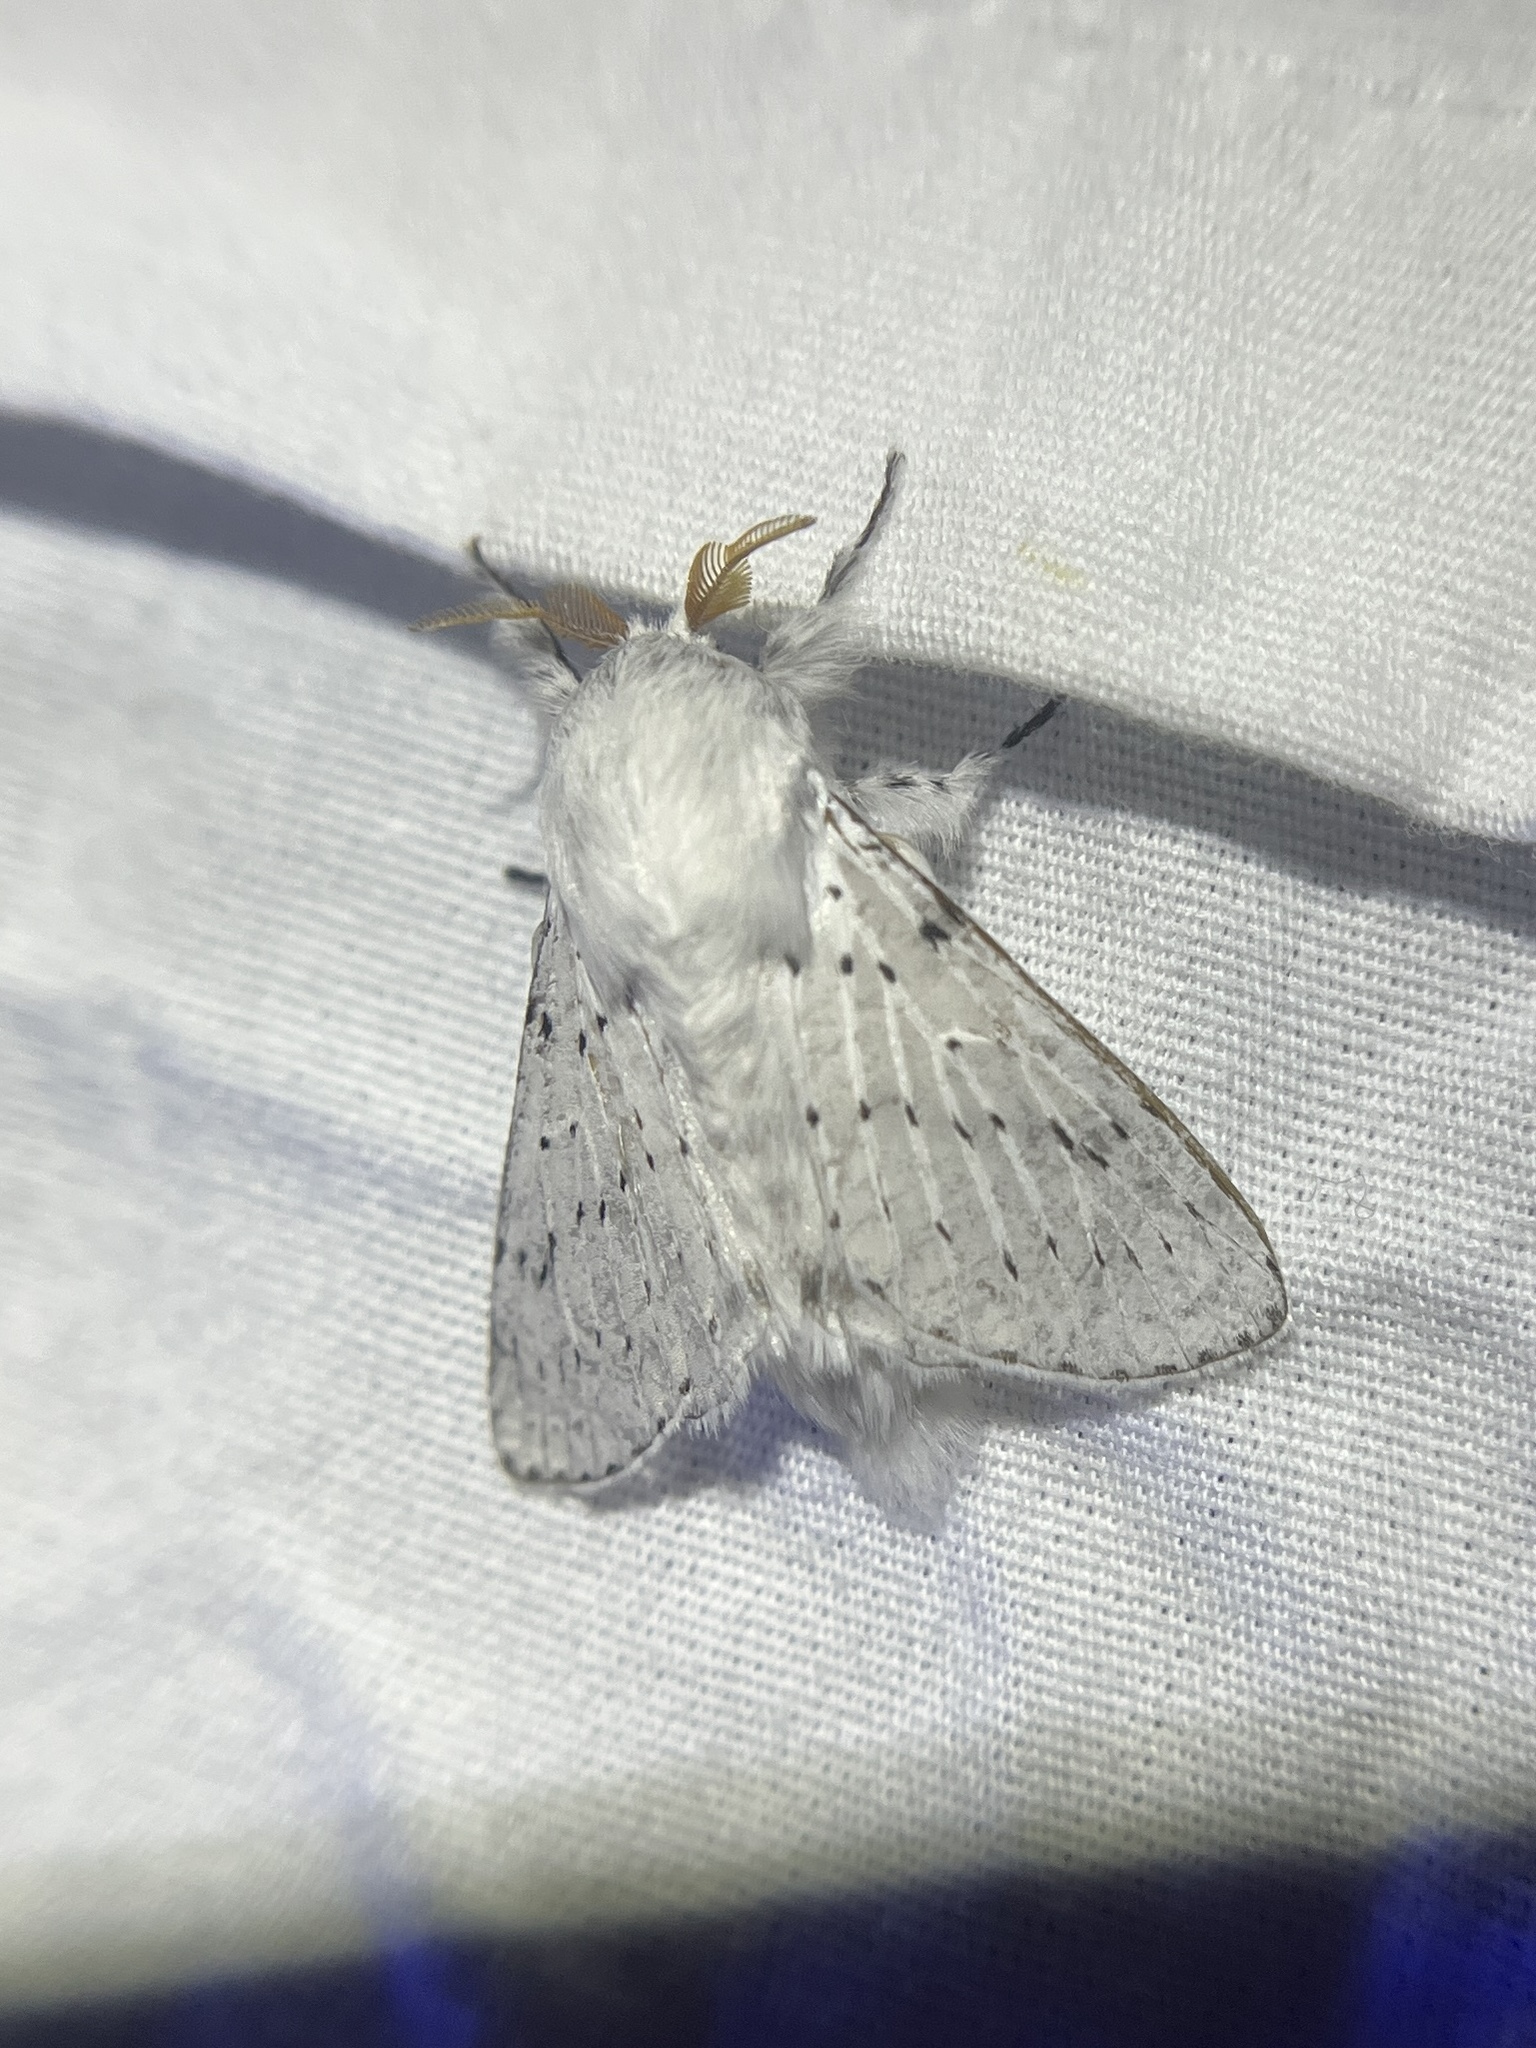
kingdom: Animalia
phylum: Arthropoda
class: Insecta
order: Lepidoptera
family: Lasiocampidae
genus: Artace
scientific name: Artace cribrarius
